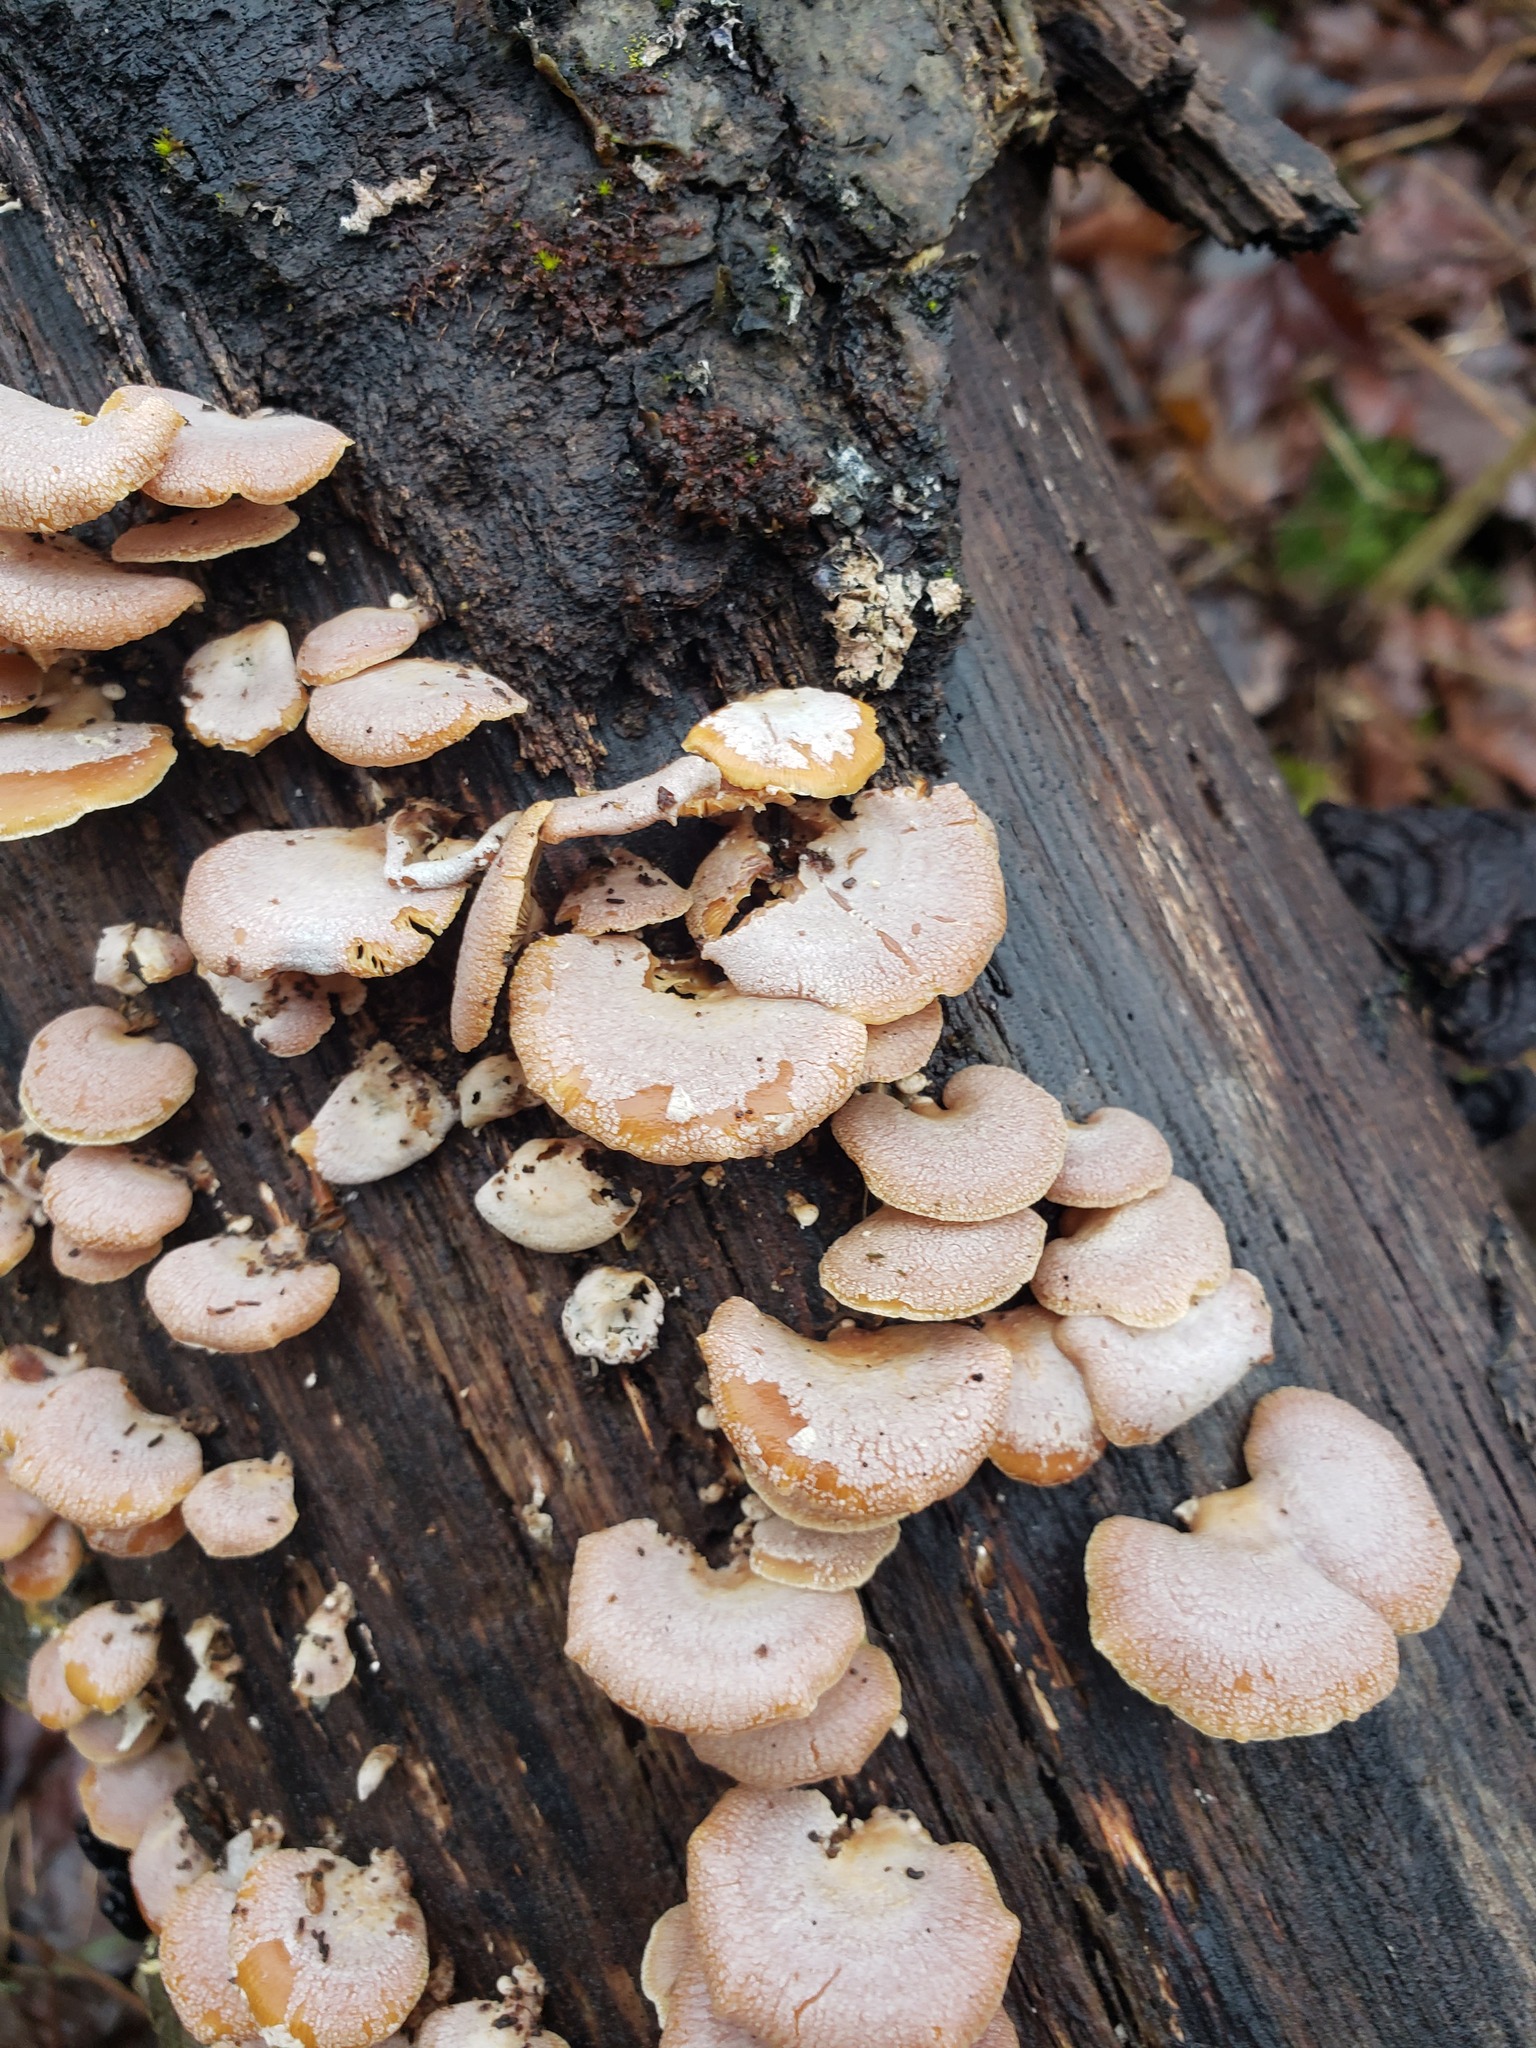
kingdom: Fungi
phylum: Basidiomycota
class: Agaricomycetes
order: Agaricales
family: Mycenaceae
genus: Panellus
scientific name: Panellus stipticus
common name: Bitter oysterling
